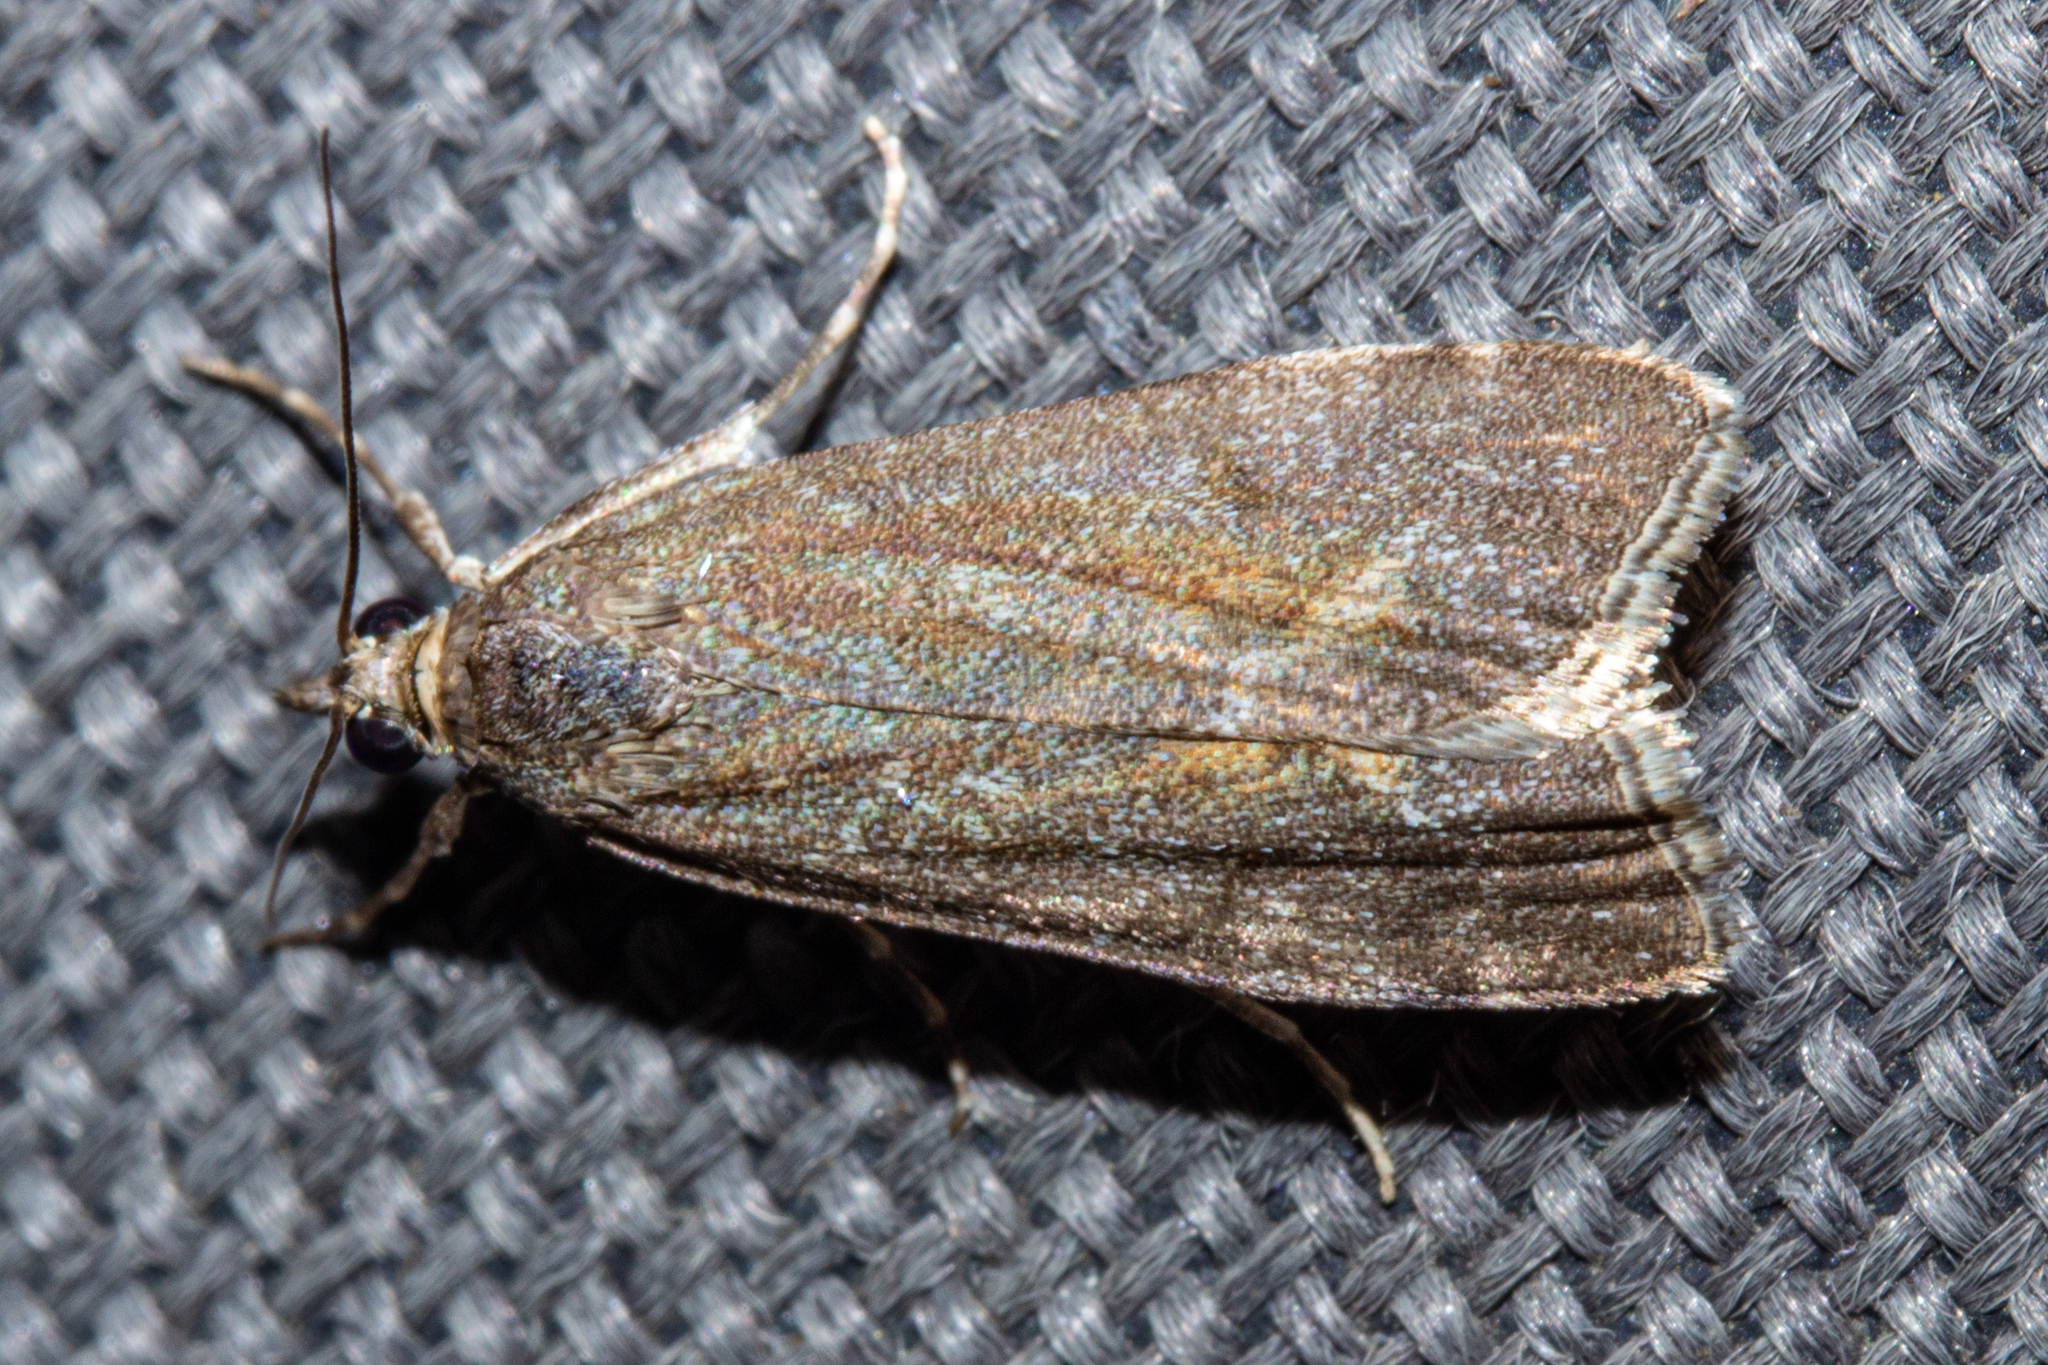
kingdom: Animalia
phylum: Arthropoda
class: Insecta
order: Lepidoptera
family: Crambidae
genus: Eudonia
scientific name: Eudonia submarginalis
